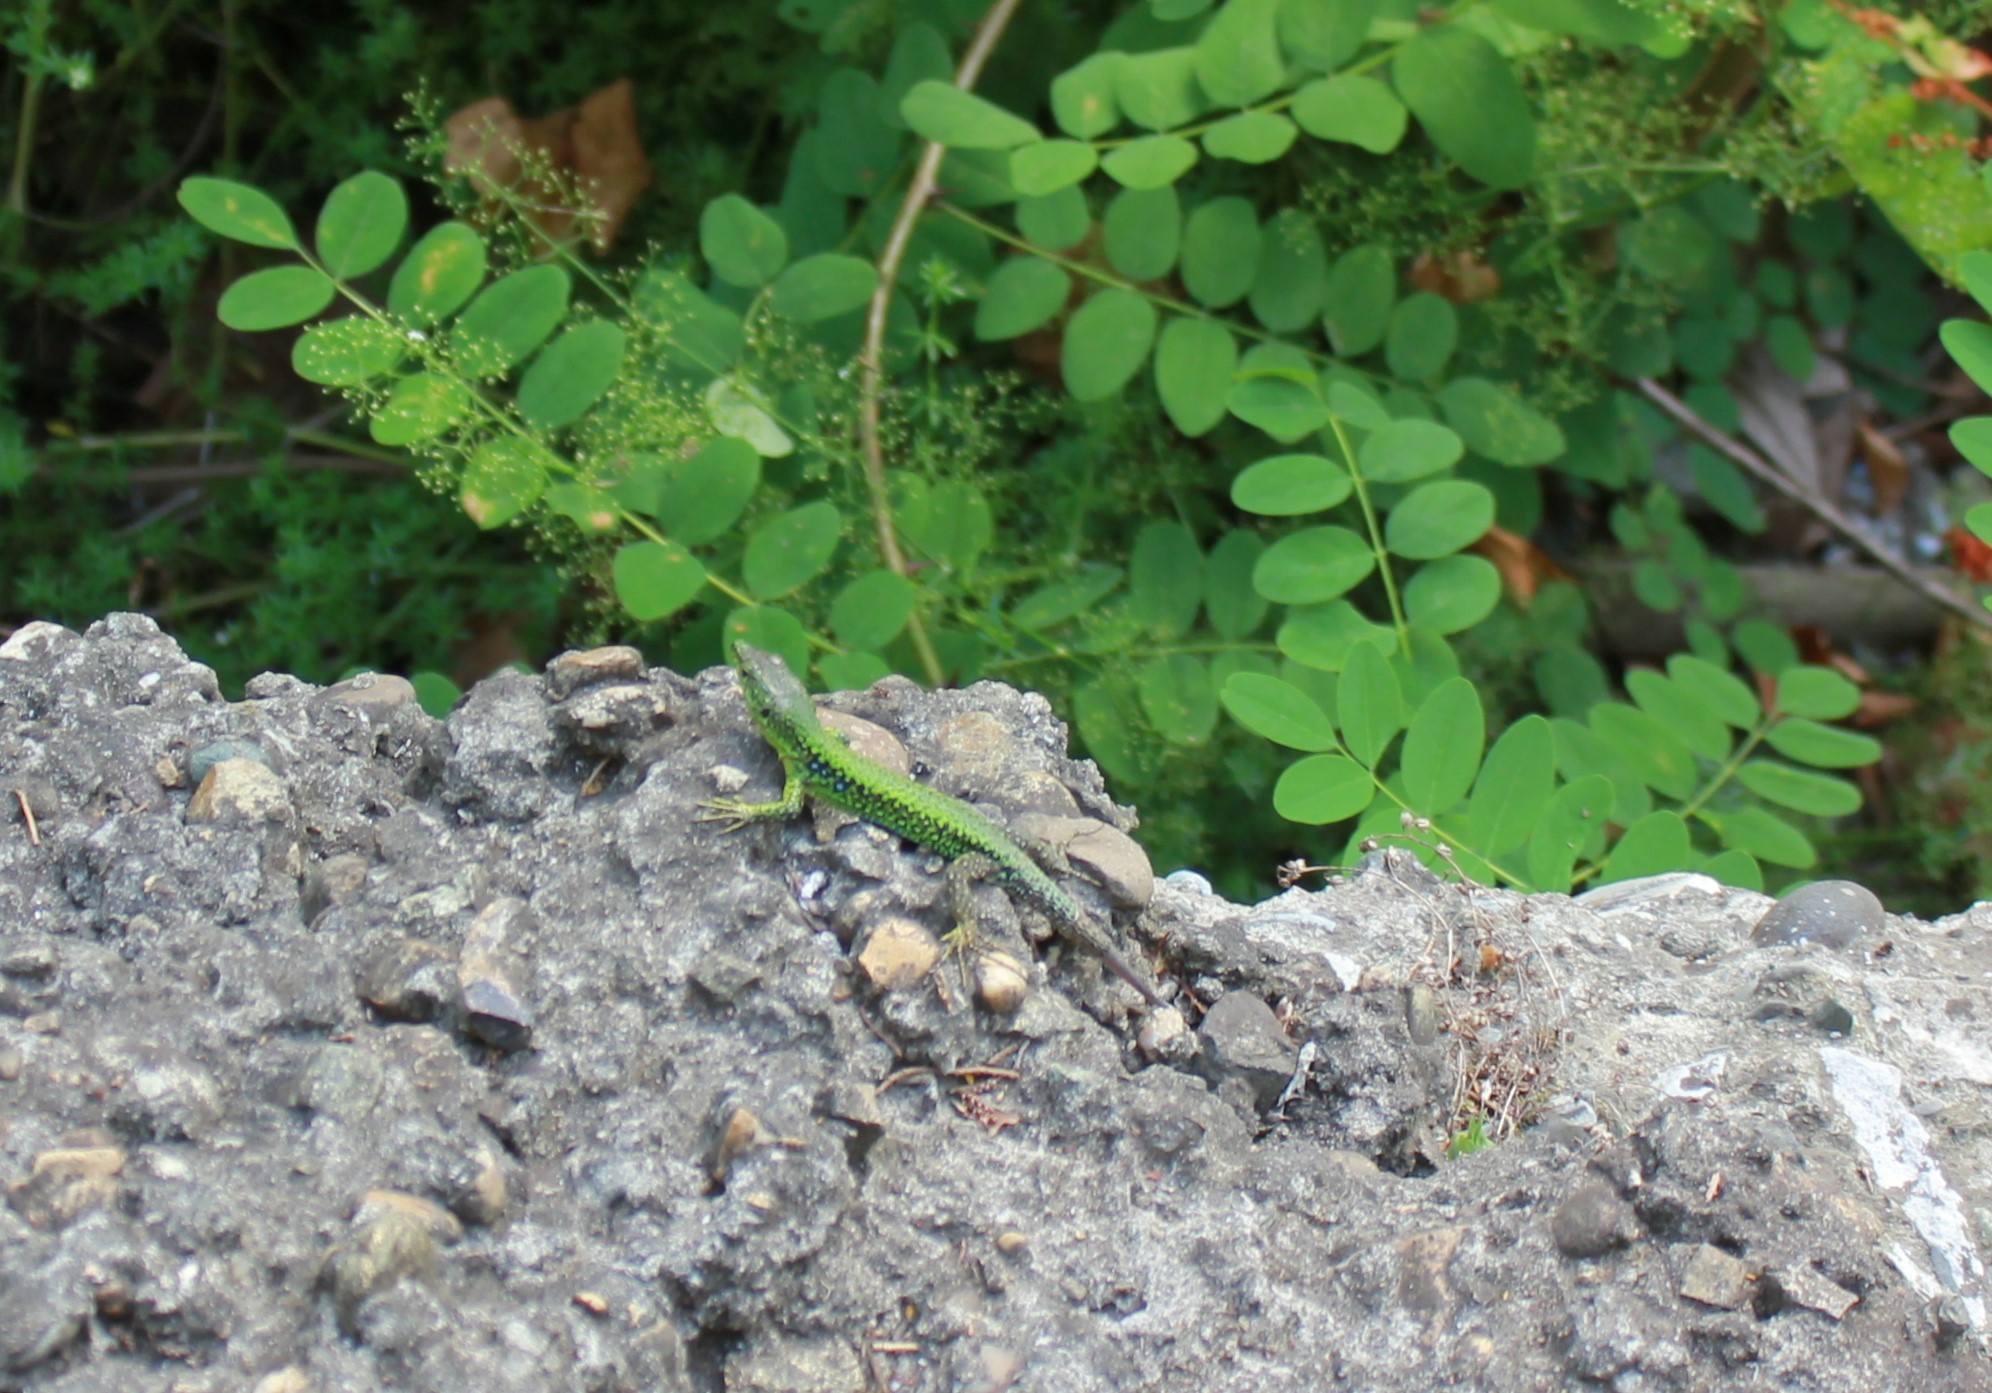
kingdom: Animalia
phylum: Chordata
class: Squamata
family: Lacertidae
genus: Darevskia
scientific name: Darevskia brauneri
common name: Brauner's rock lizard
